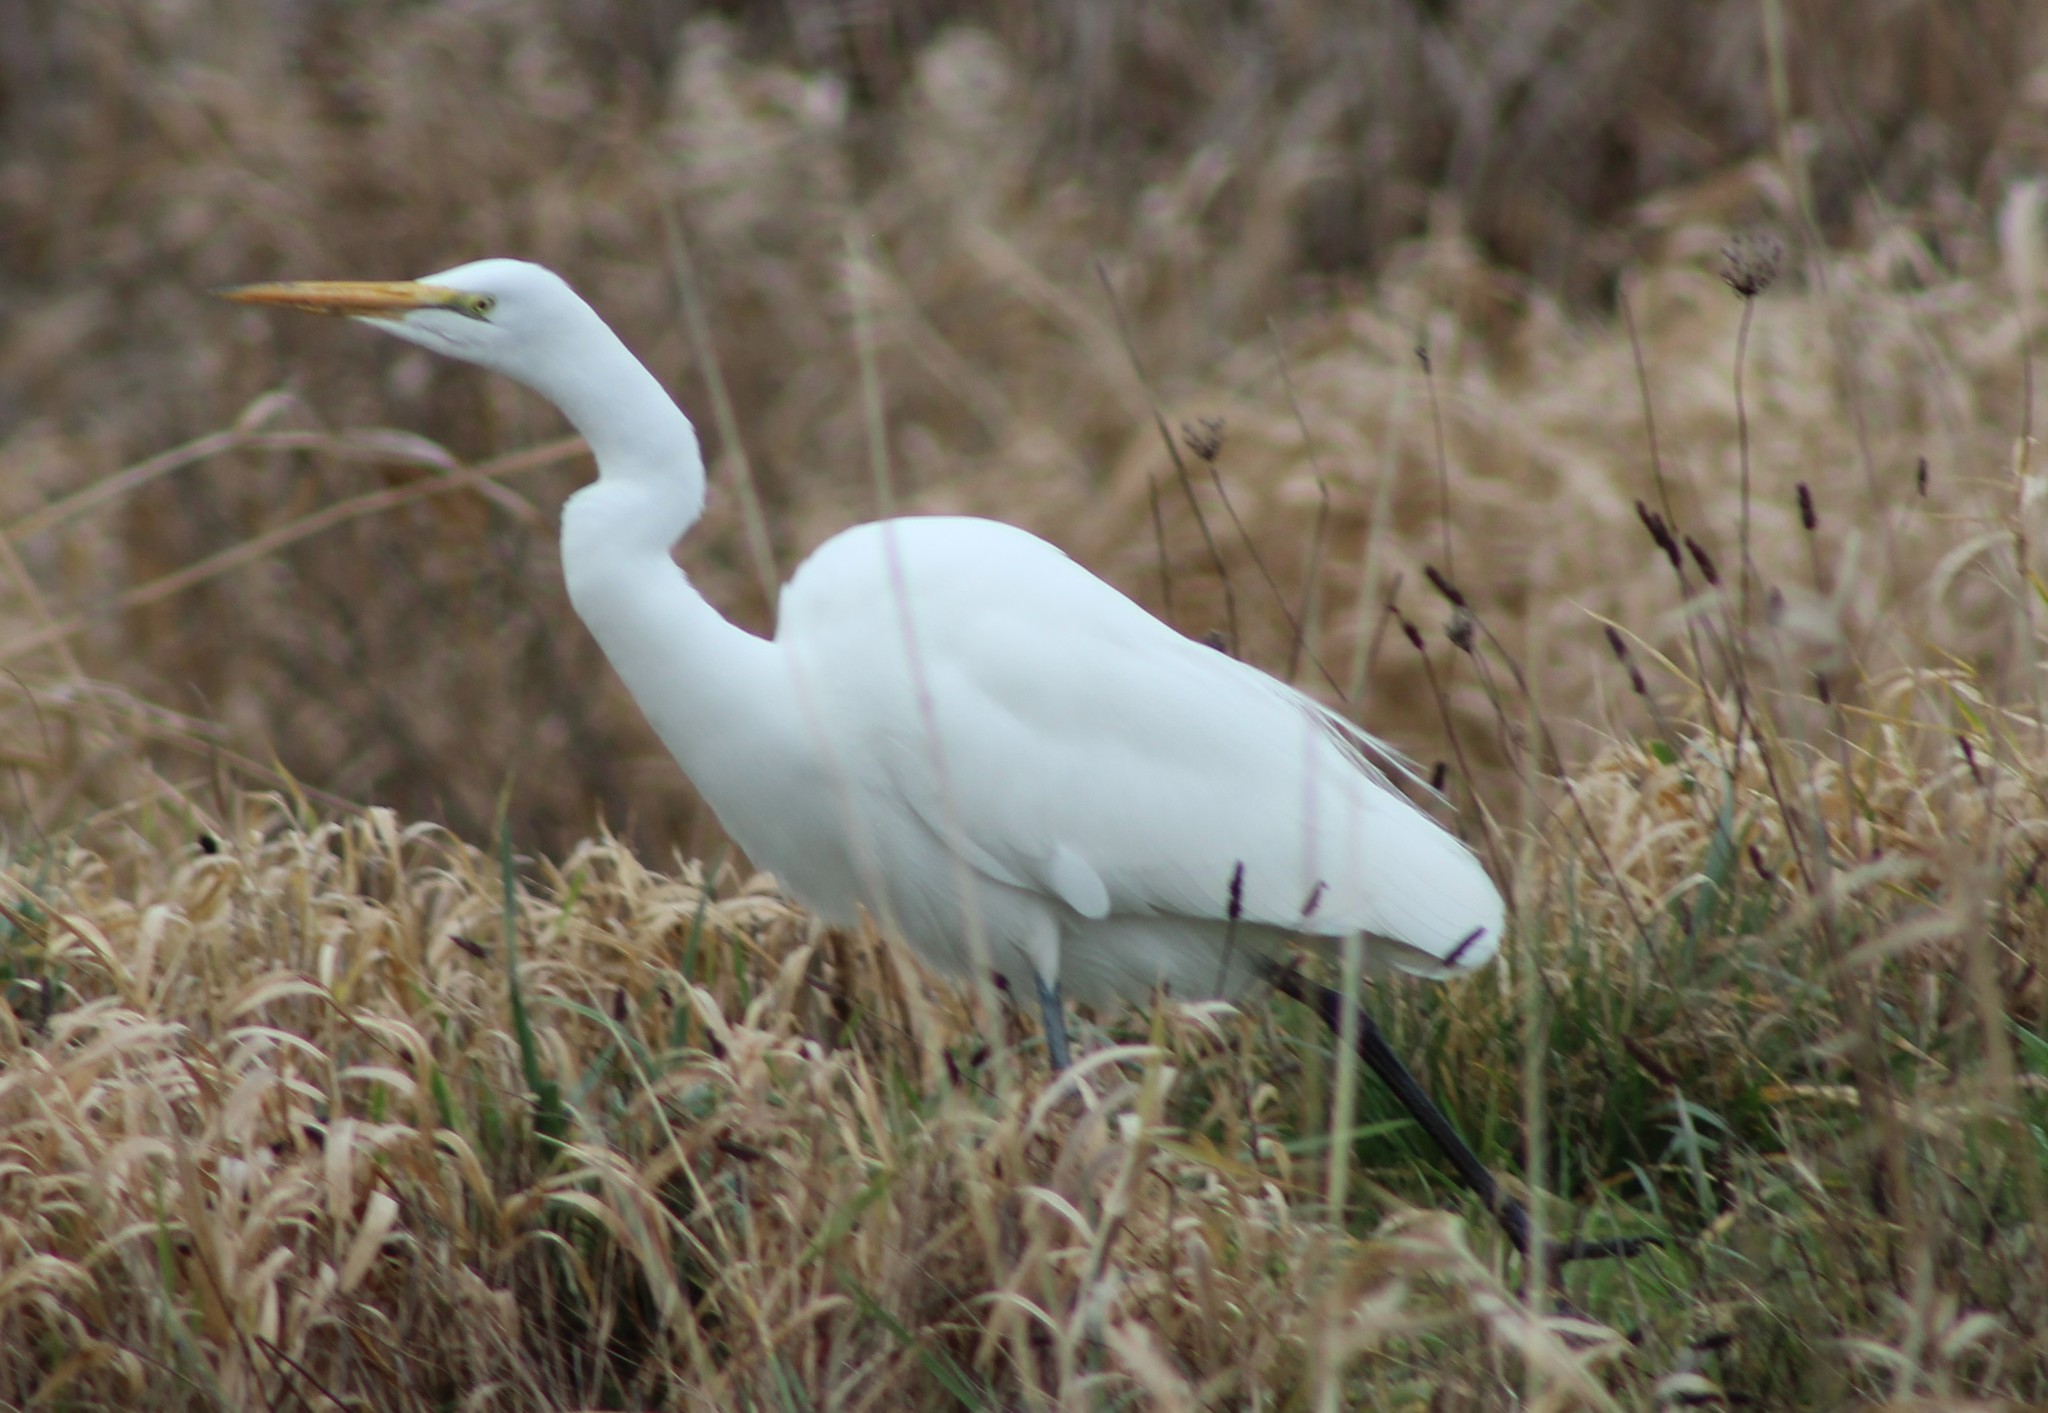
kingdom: Animalia
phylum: Chordata
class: Aves
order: Pelecaniformes
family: Ardeidae
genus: Ardea
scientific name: Ardea alba
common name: Great egret
